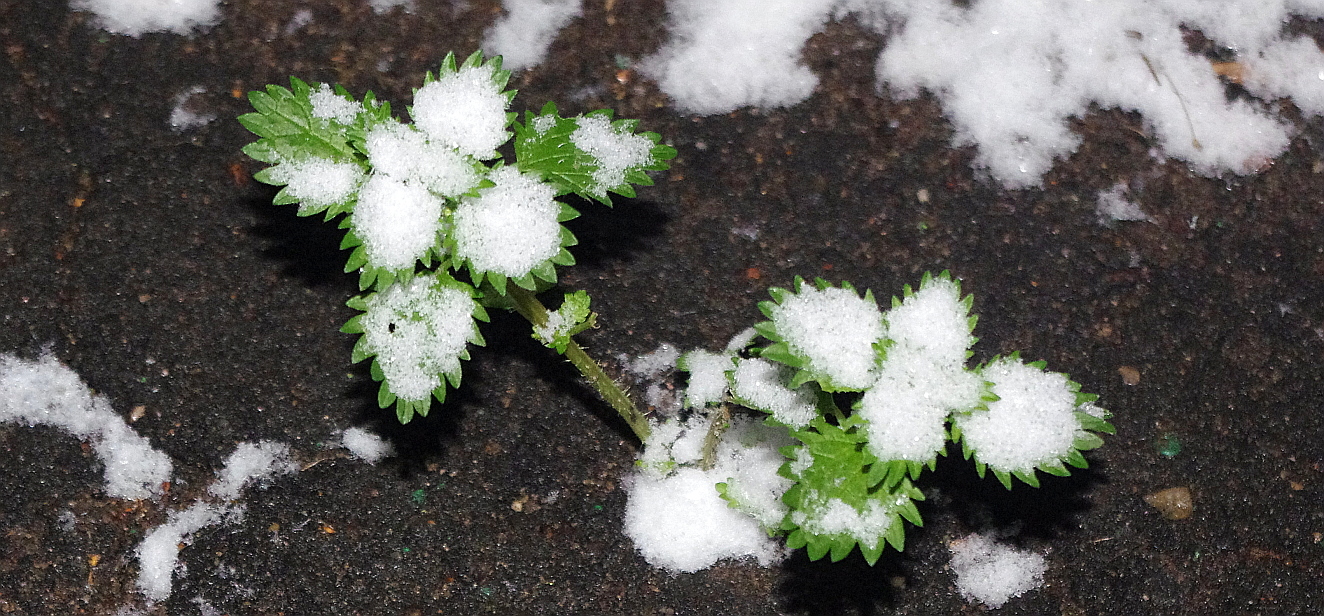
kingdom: Plantae
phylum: Tracheophyta
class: Magnoliopsida
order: Rosales
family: Urticaceae
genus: Urtica
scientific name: Urtica urens
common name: Dwarf nettle
